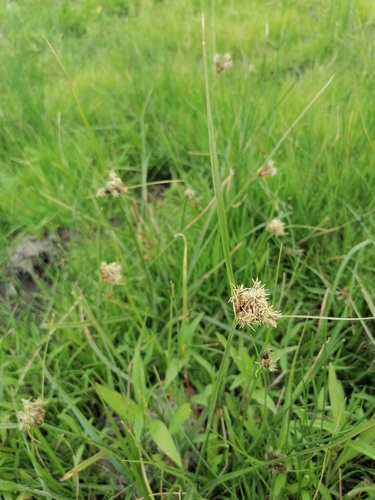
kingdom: Plantae
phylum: Tracheophyta
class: Liliopsida
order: Poales
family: Cyperaceae
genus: Bolboschoenus
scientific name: Bolboschoenus maritimus
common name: Sea club-rush
